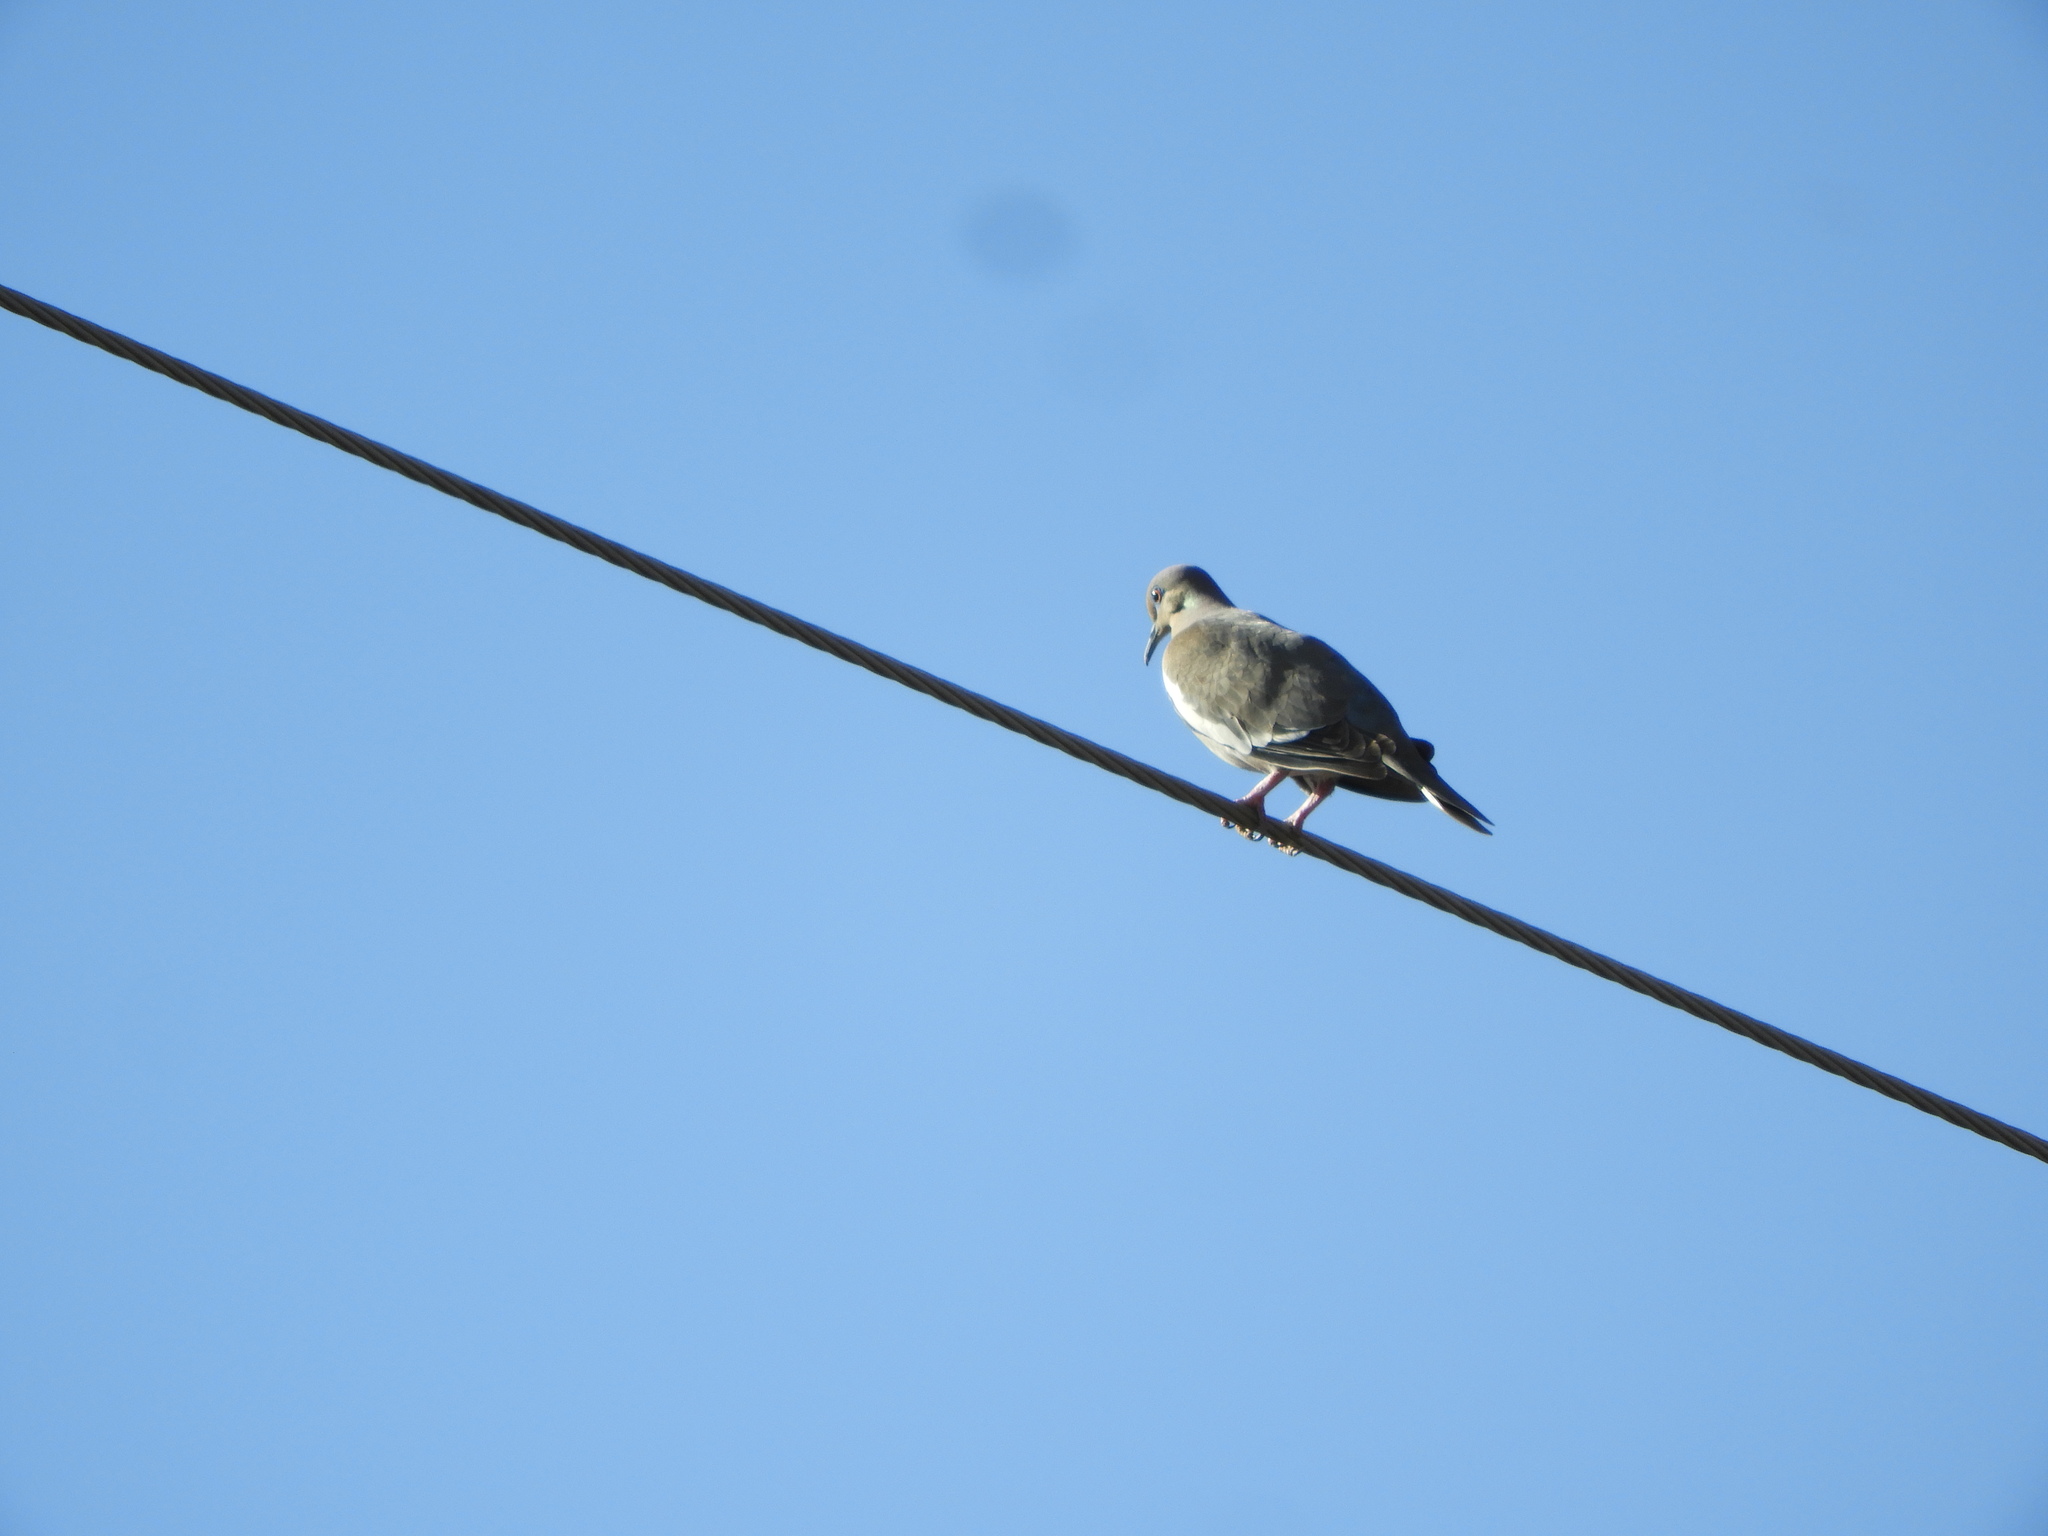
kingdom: Animalia
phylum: Chordata
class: Aves
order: Columbiformes
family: Columbidae
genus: Zenaida
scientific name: Zenaida asiatica
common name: White-winged dove
